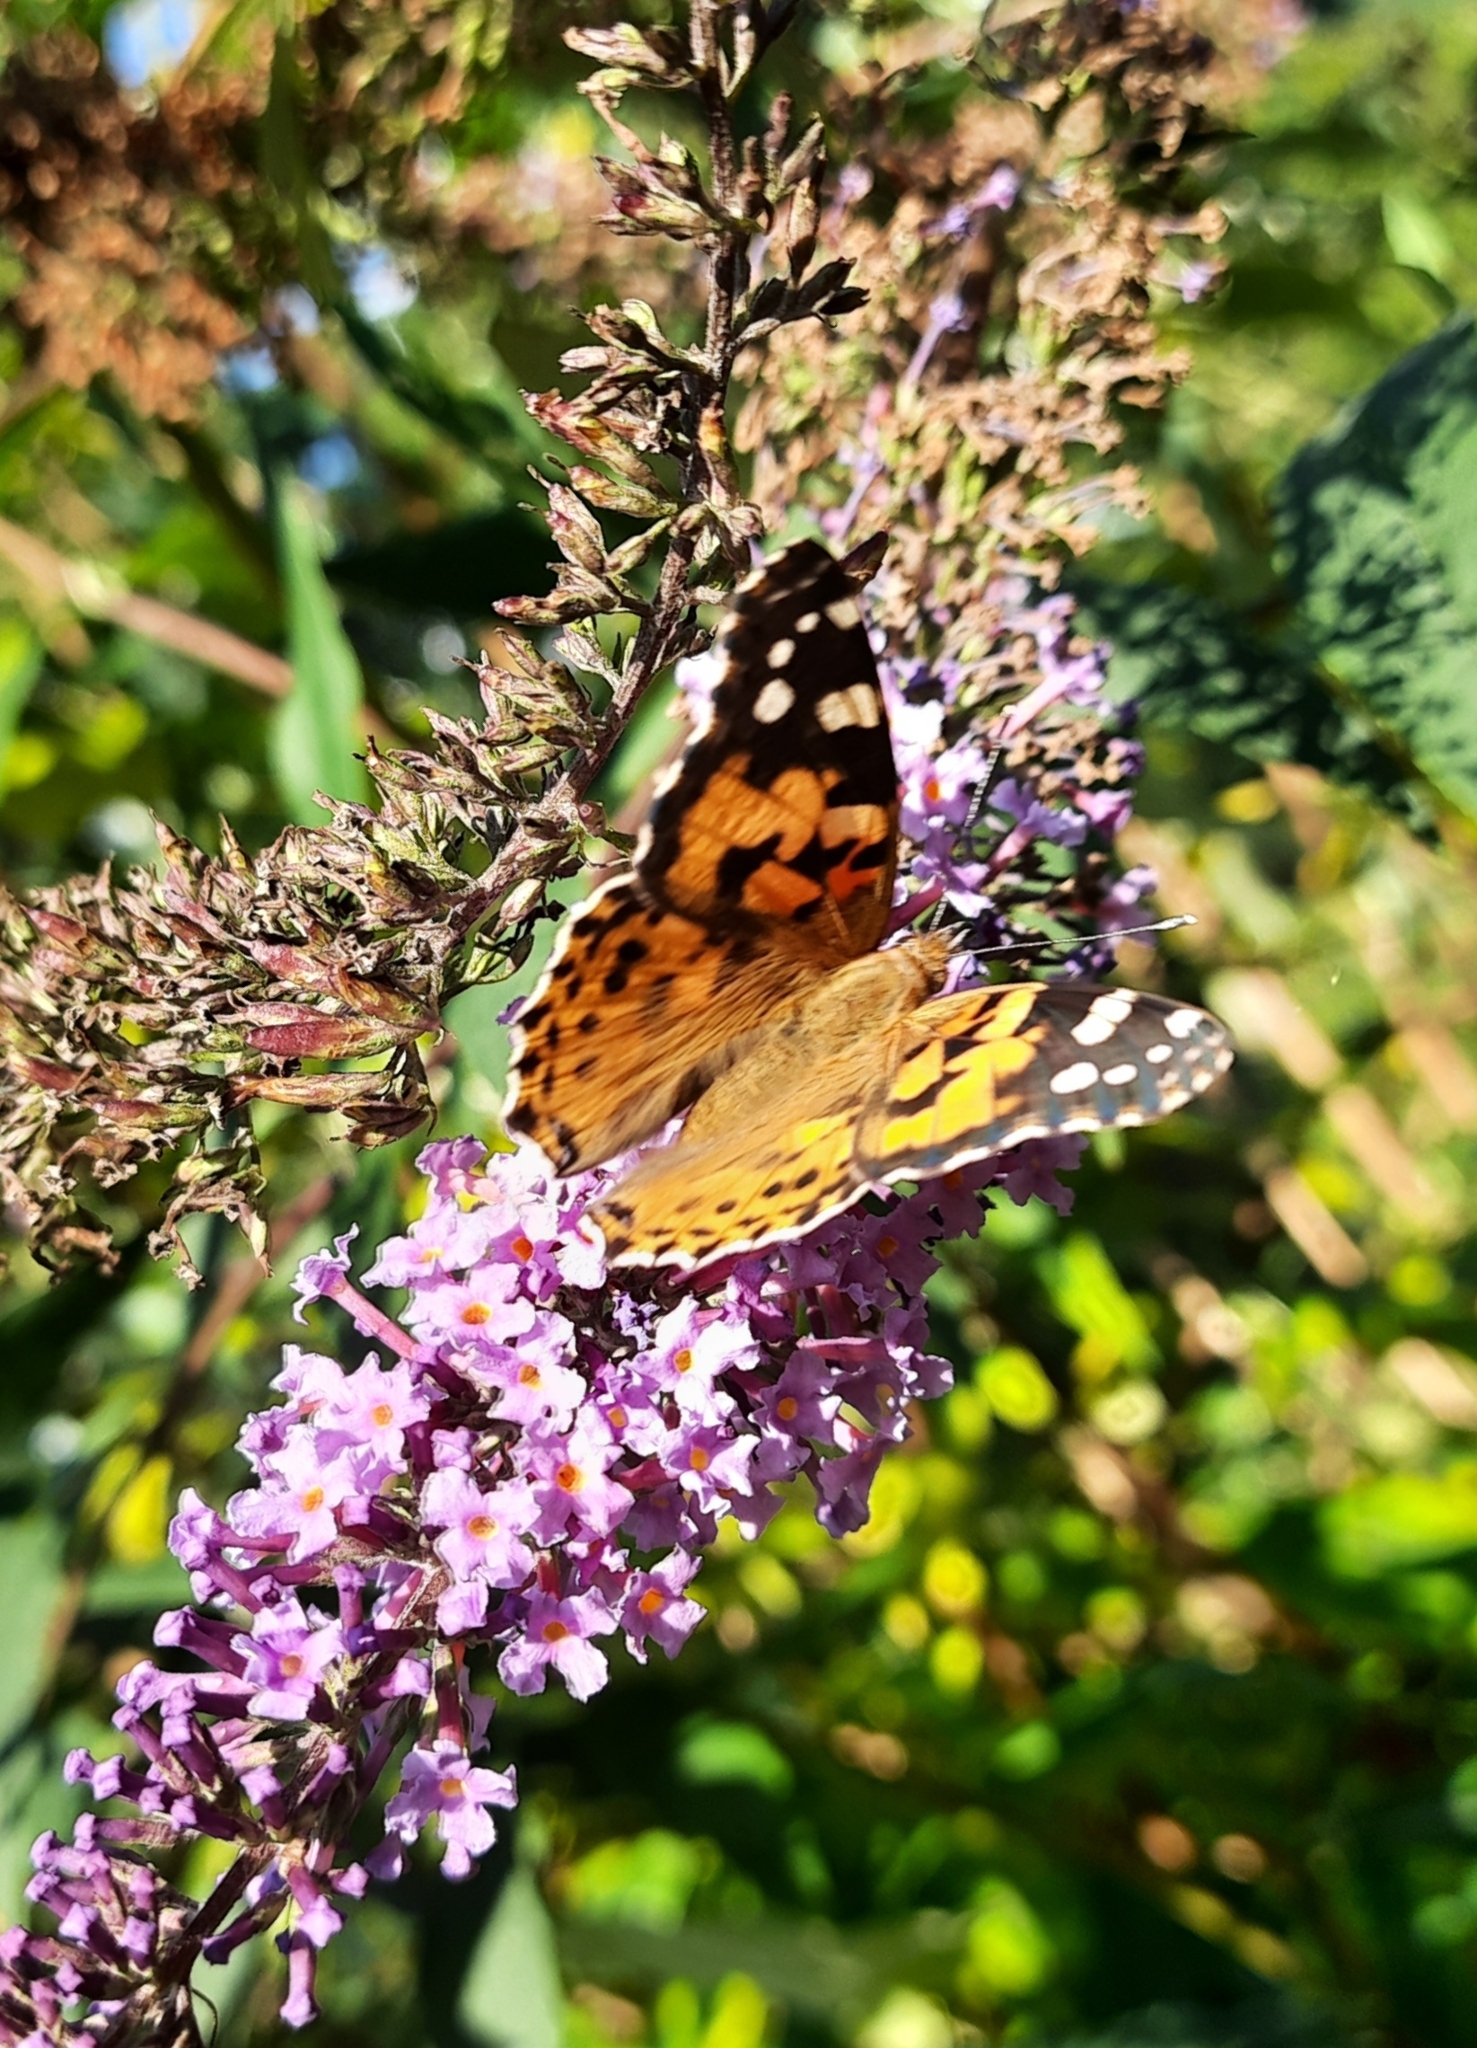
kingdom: Animalia
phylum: Arthropoda
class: Insecta
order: Lepidoptera
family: Nymphalidae
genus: Vanessa
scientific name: Vanessa cardui
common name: Painted lady
